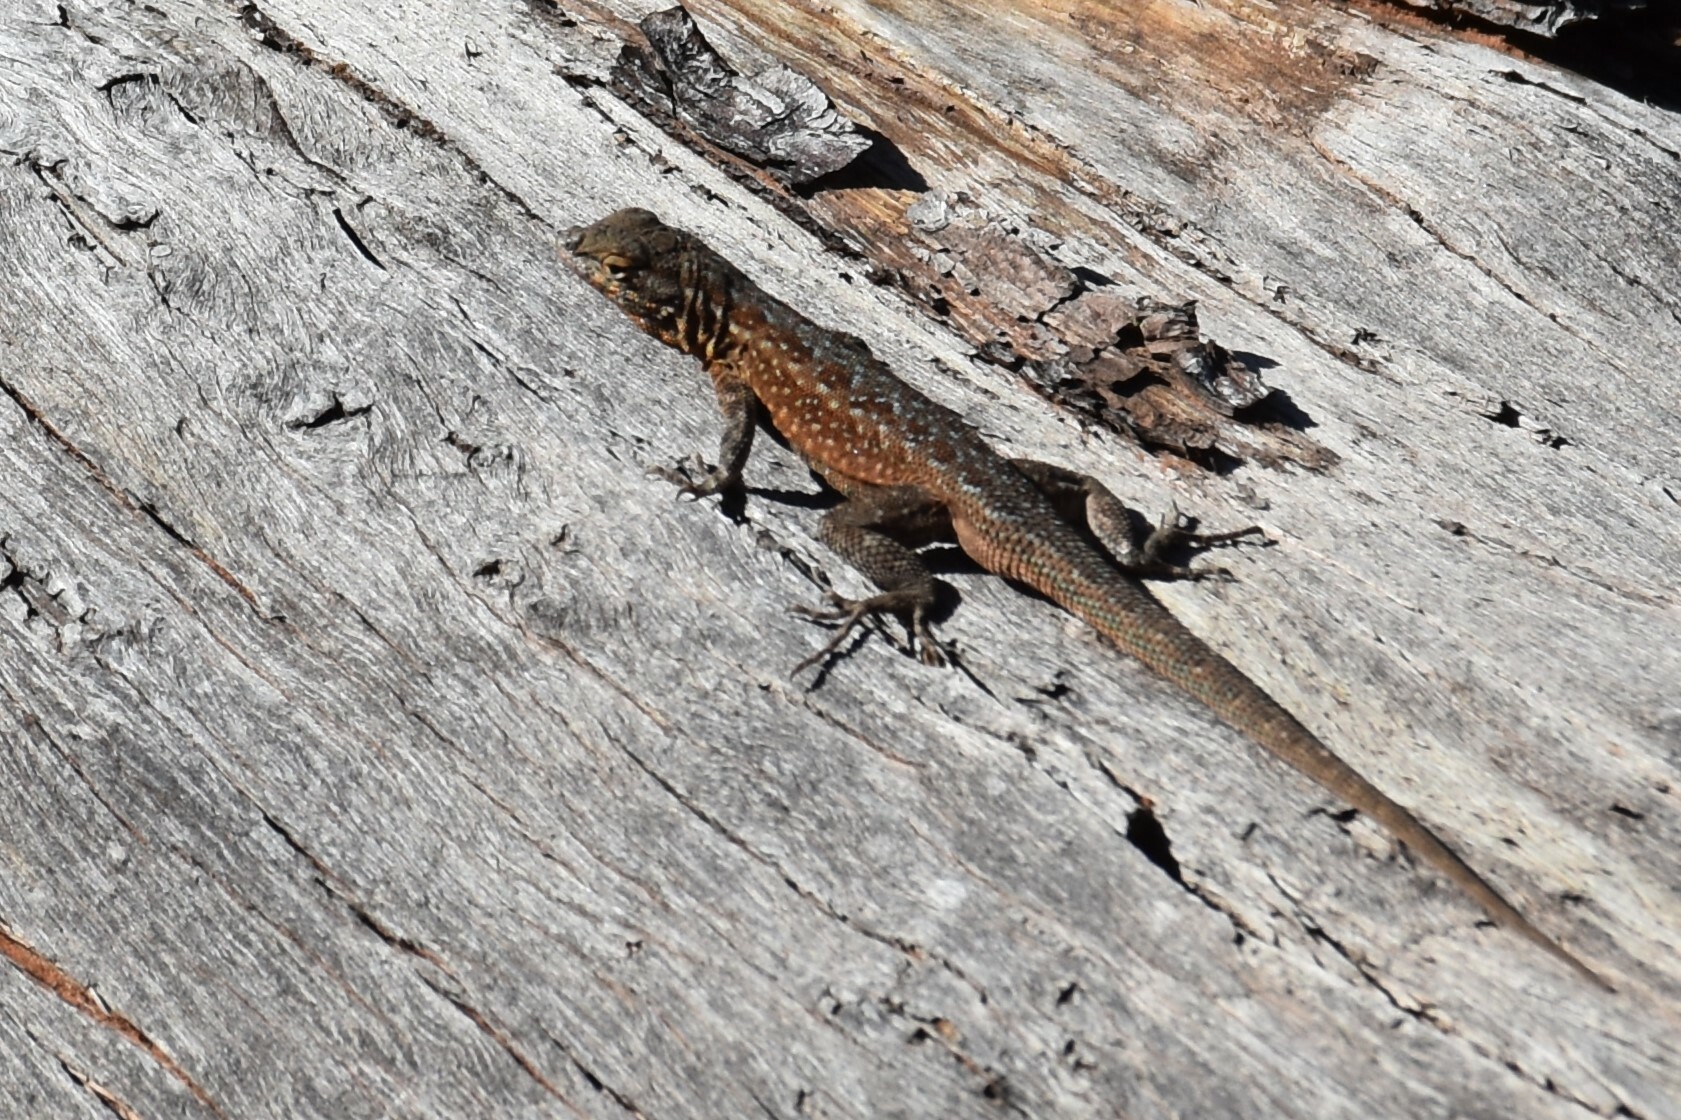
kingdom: Animalia
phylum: Chordata
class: Squamata
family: Phrynosomatidae
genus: Uta
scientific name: Uta stansburiana
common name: Side-blotched lizard
